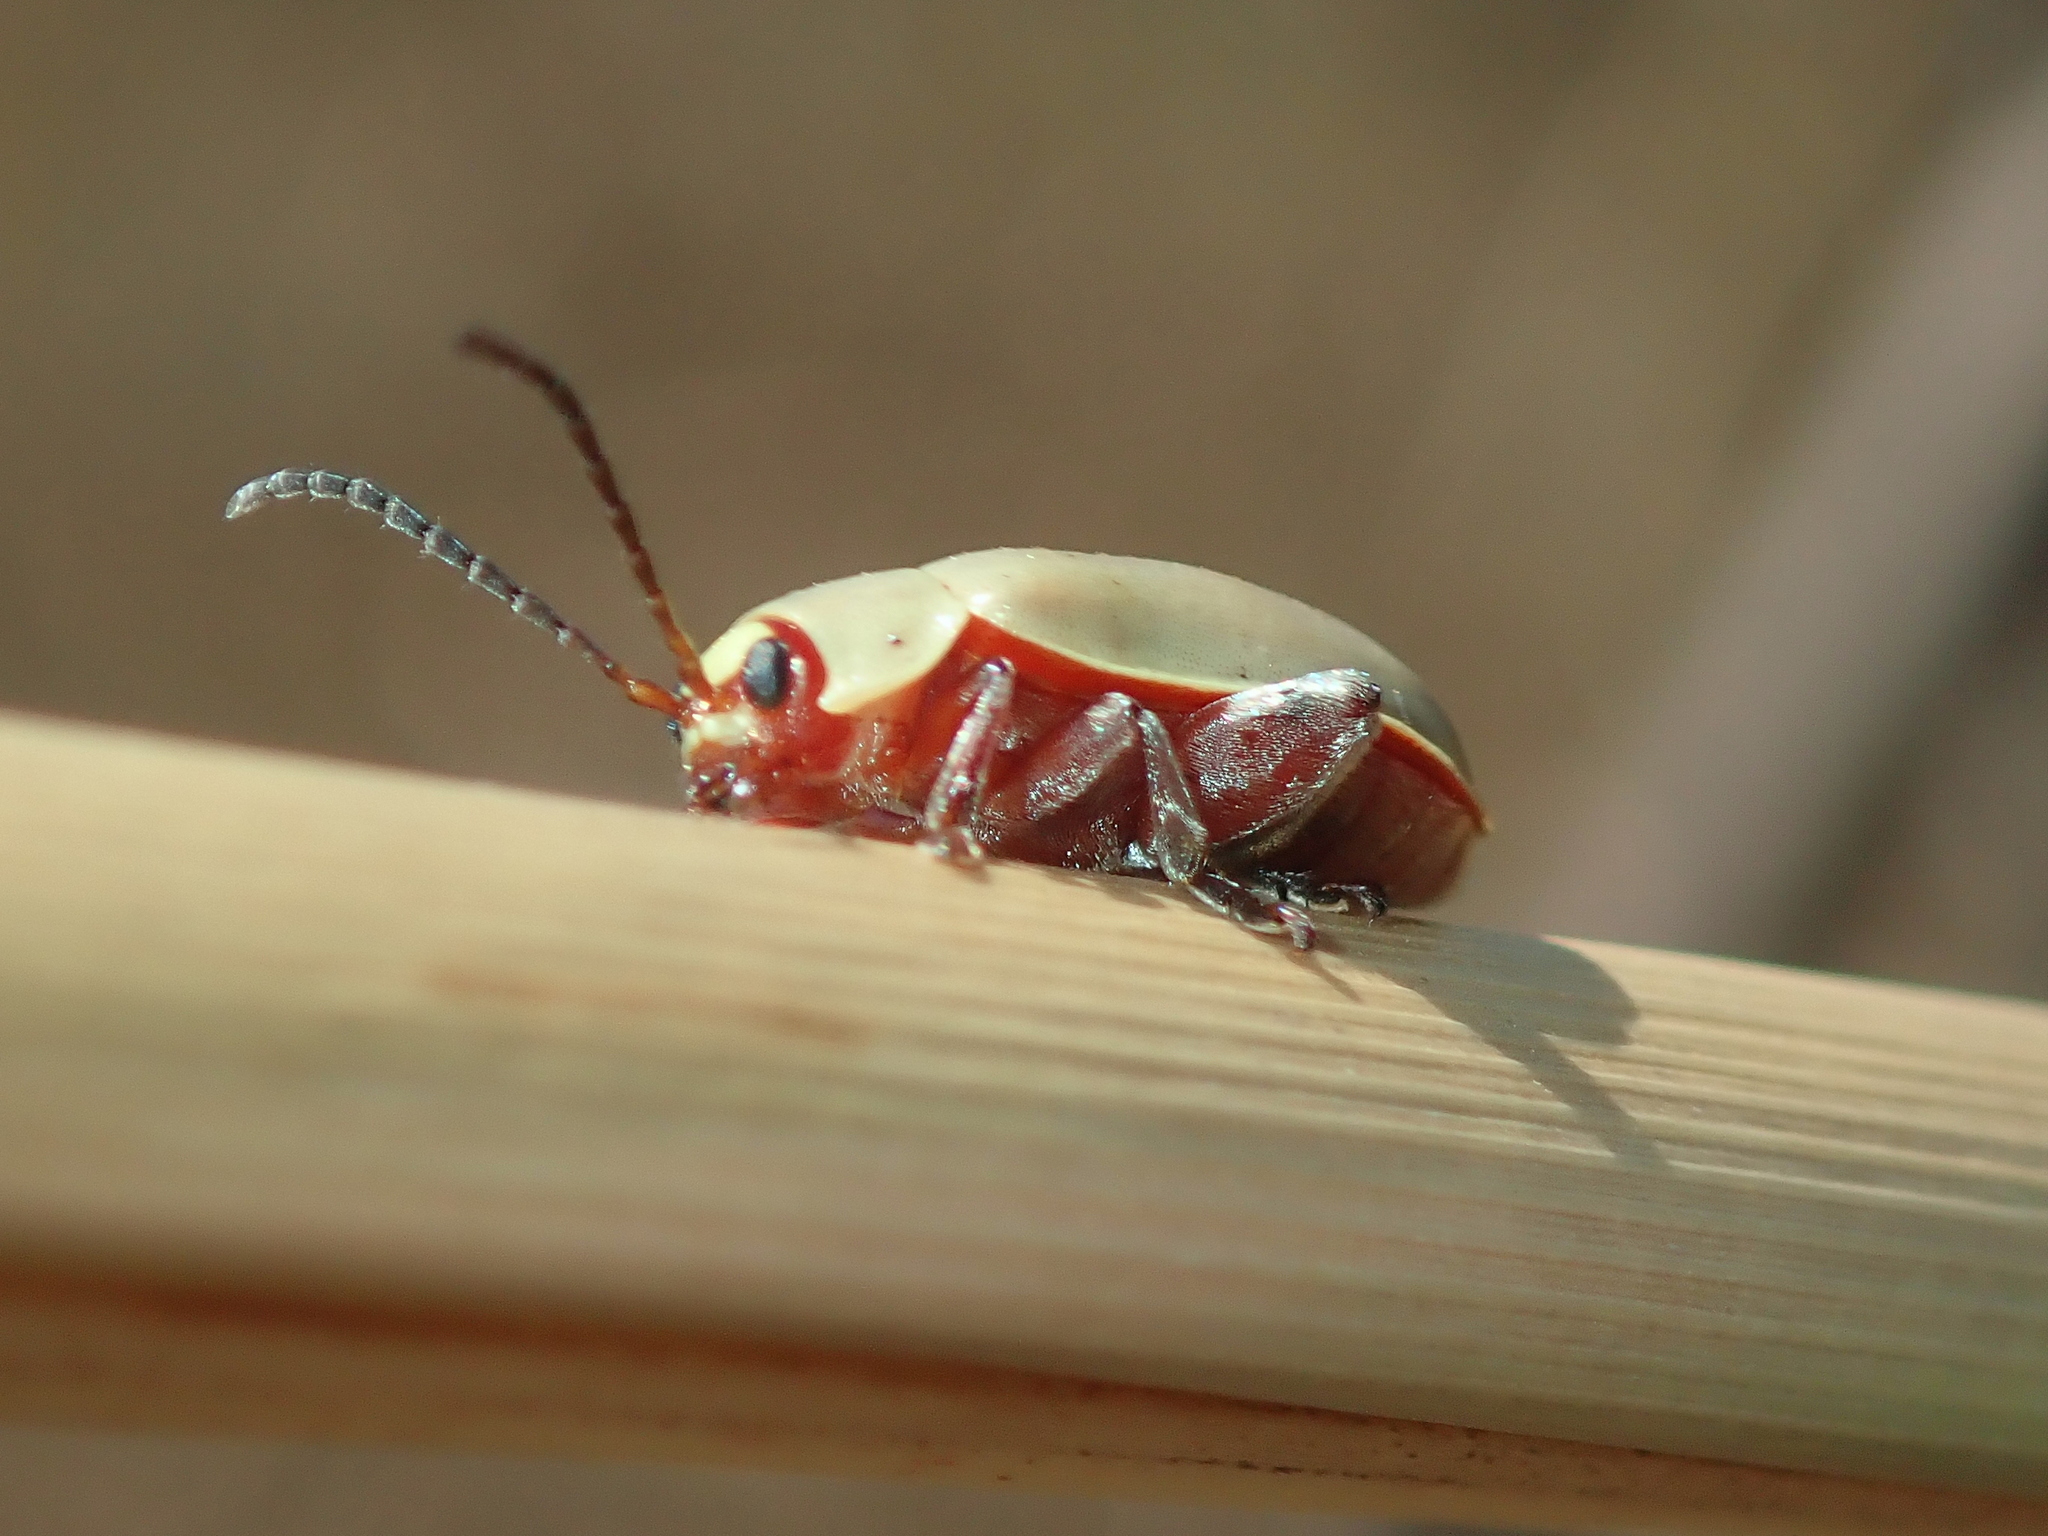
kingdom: Animalia
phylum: Arthropoda
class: Insecta
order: Coleoptera
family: Chrysomelidae
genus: Omophoita
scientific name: Omophoita
